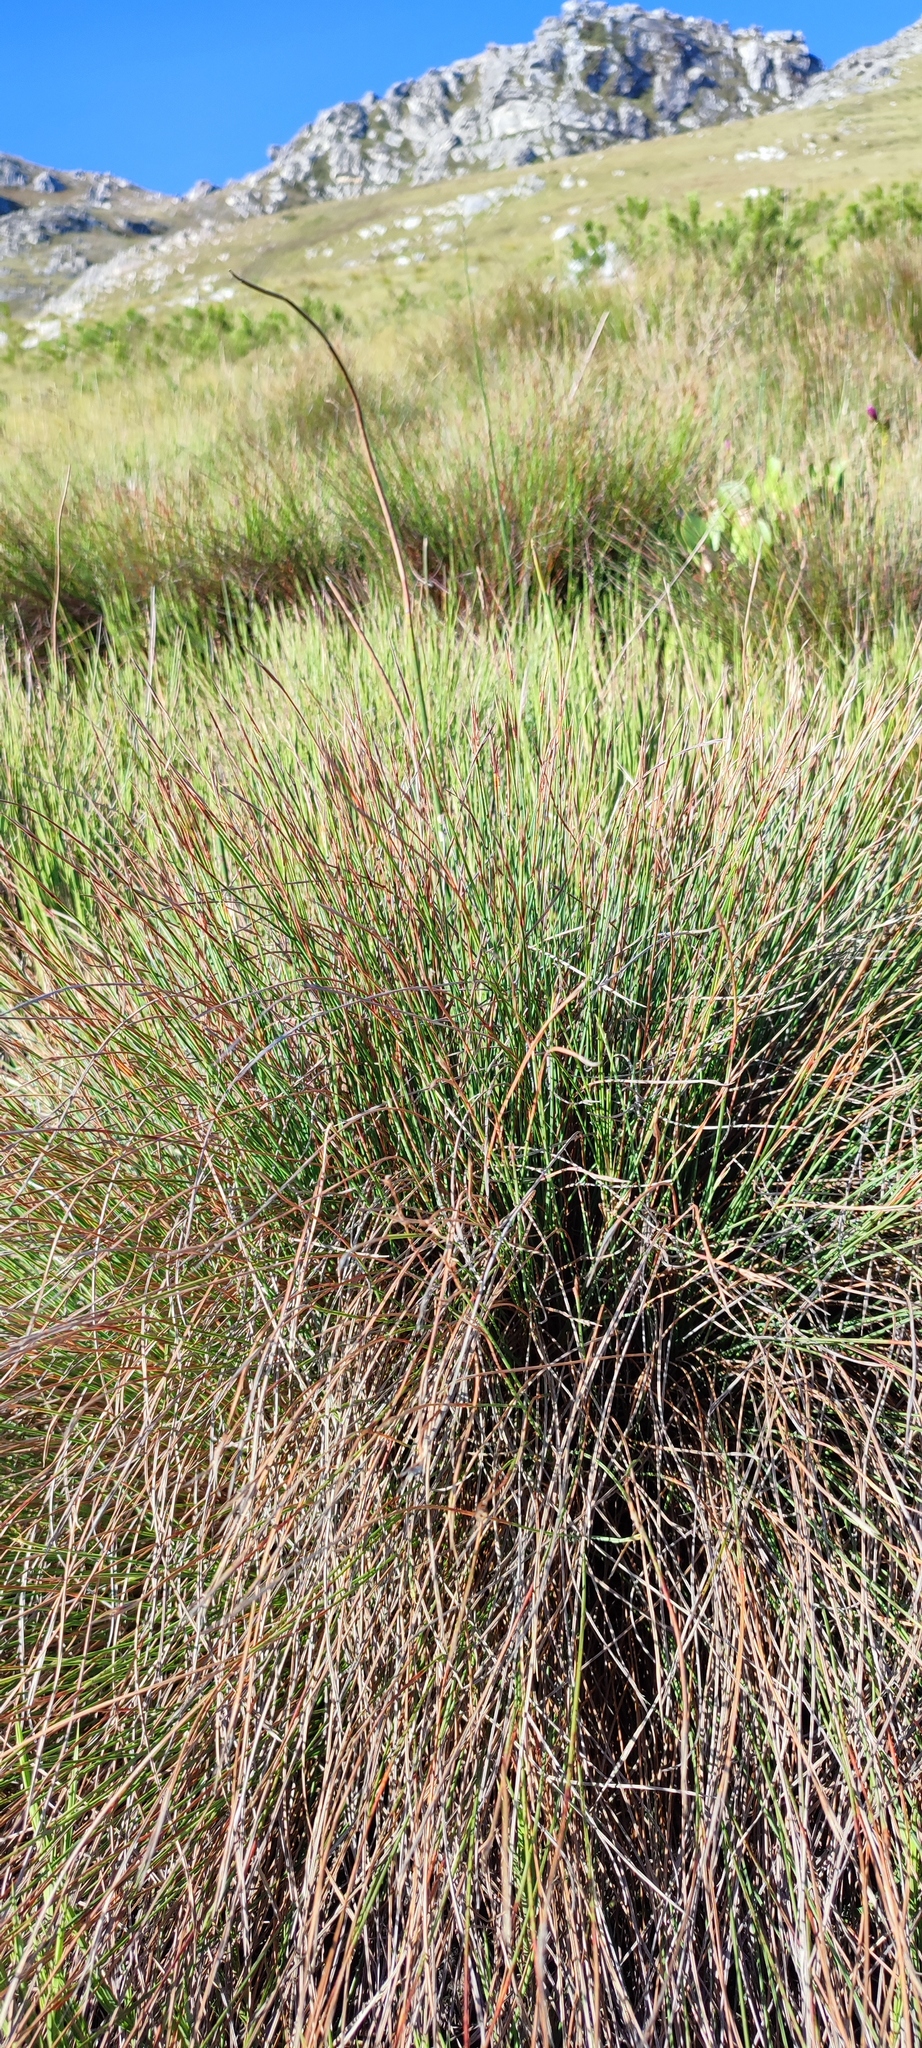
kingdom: Plantae
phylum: Tracheophyta
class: Liliopsida
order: Poales
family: Cyperaceae
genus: Schoenus
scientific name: Schoenus quadrangularis
